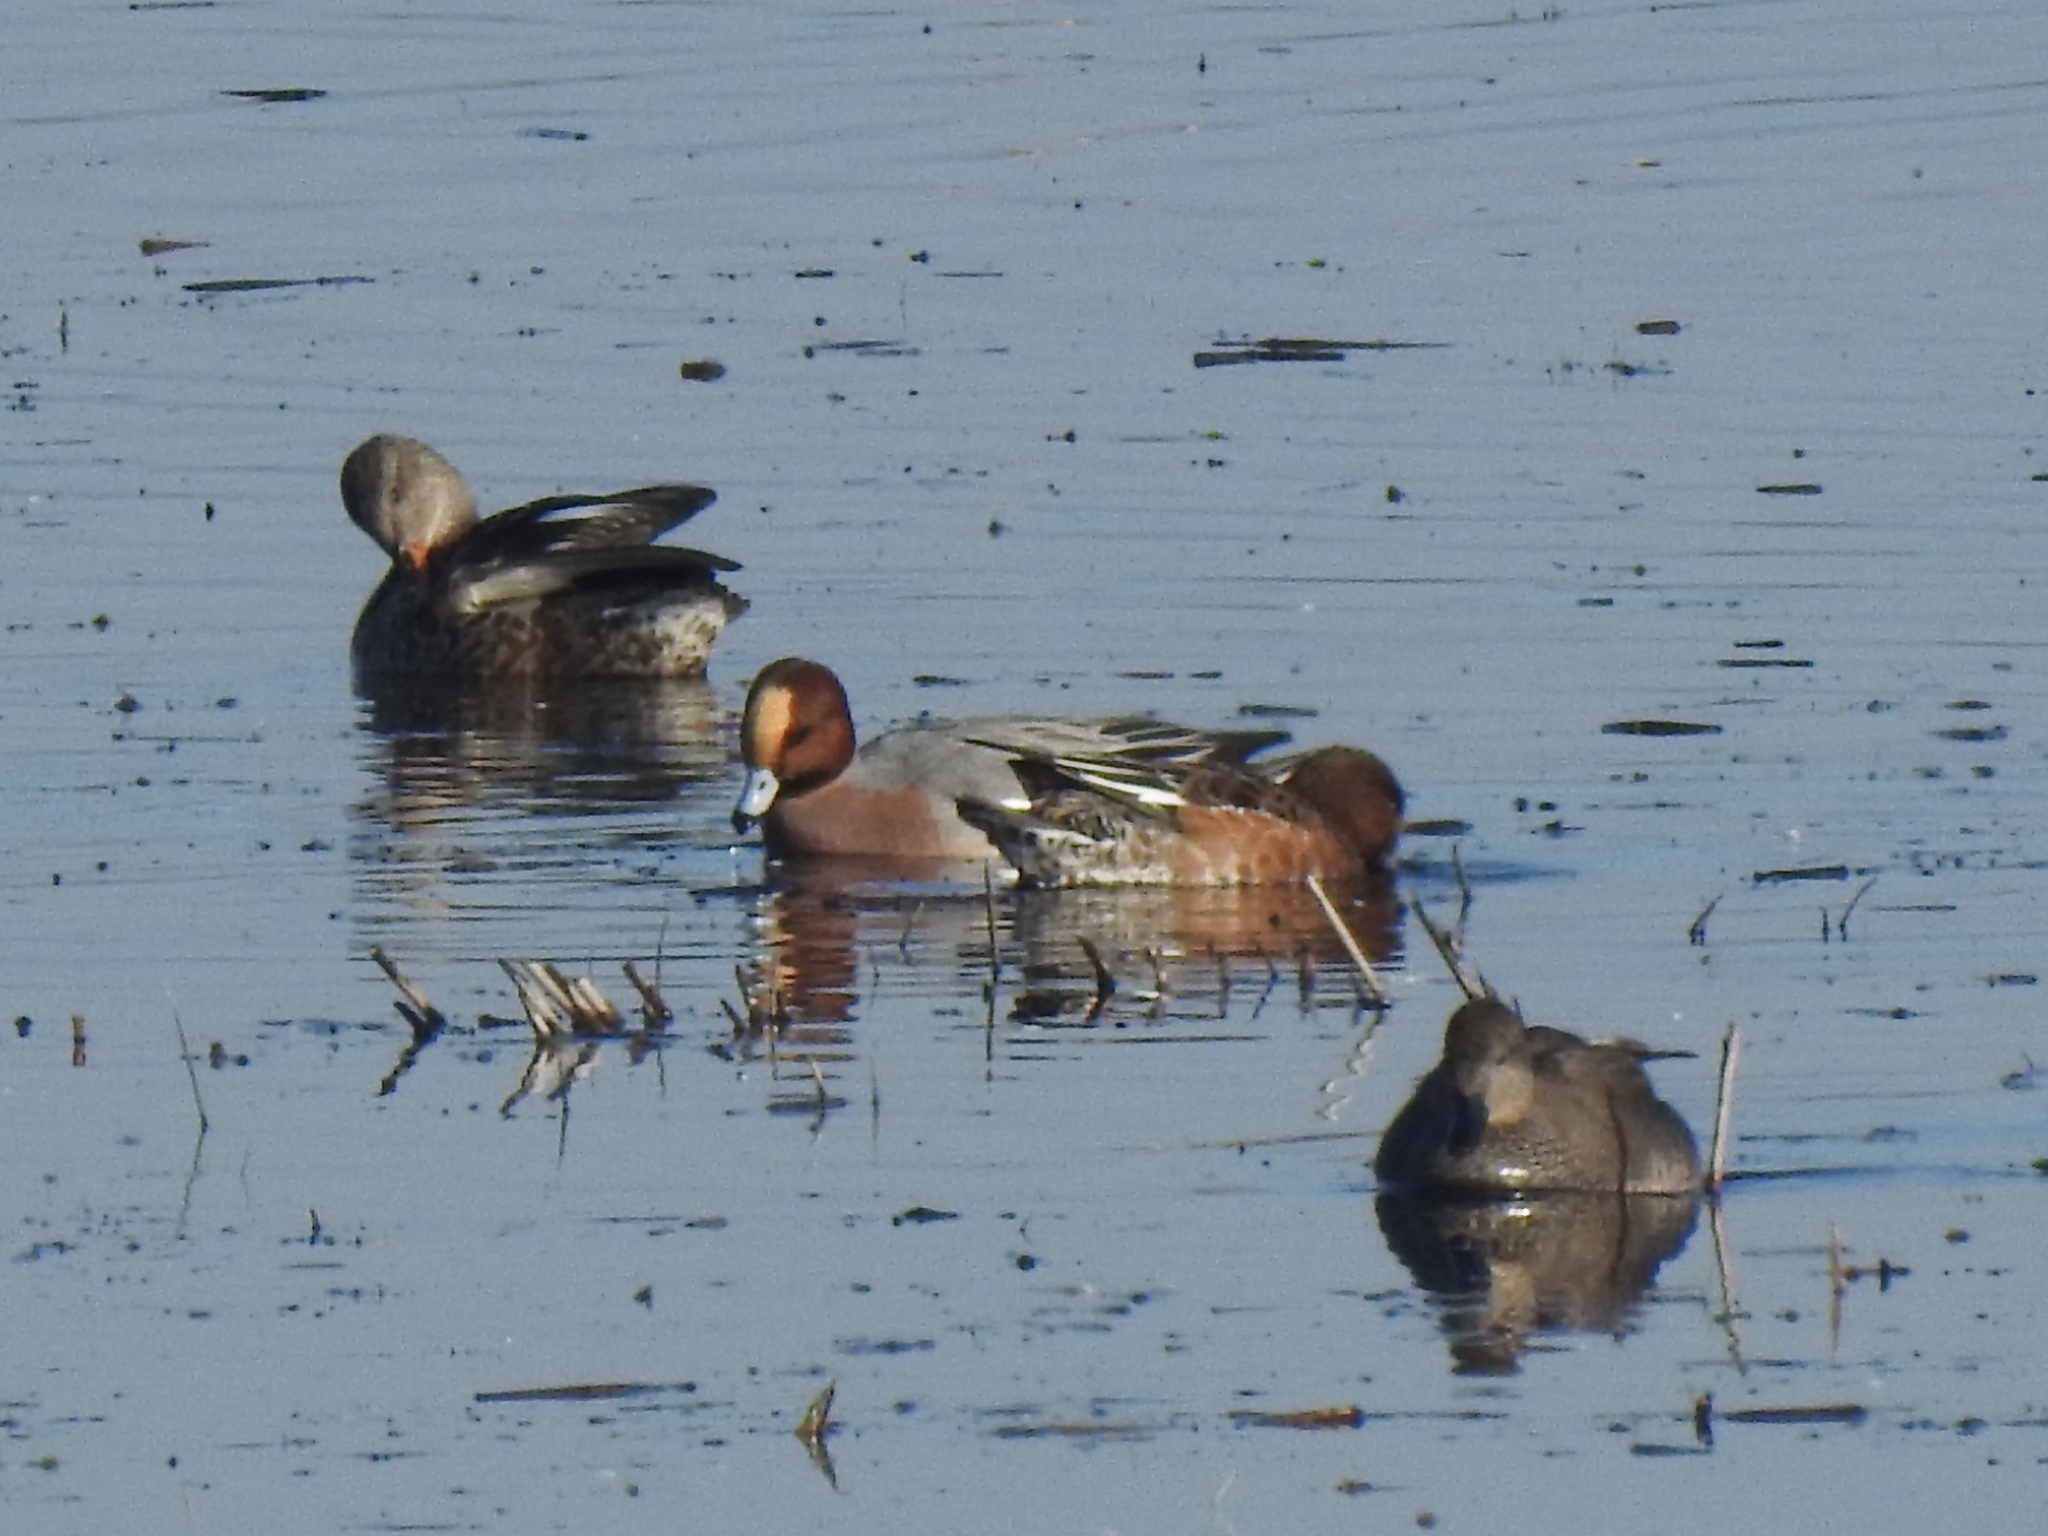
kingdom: Animalia
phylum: Chordata
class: Aves
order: Anseriformes
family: Anatidae
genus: Mareca
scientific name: Mareca penelope
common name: Eurasian wigeon
